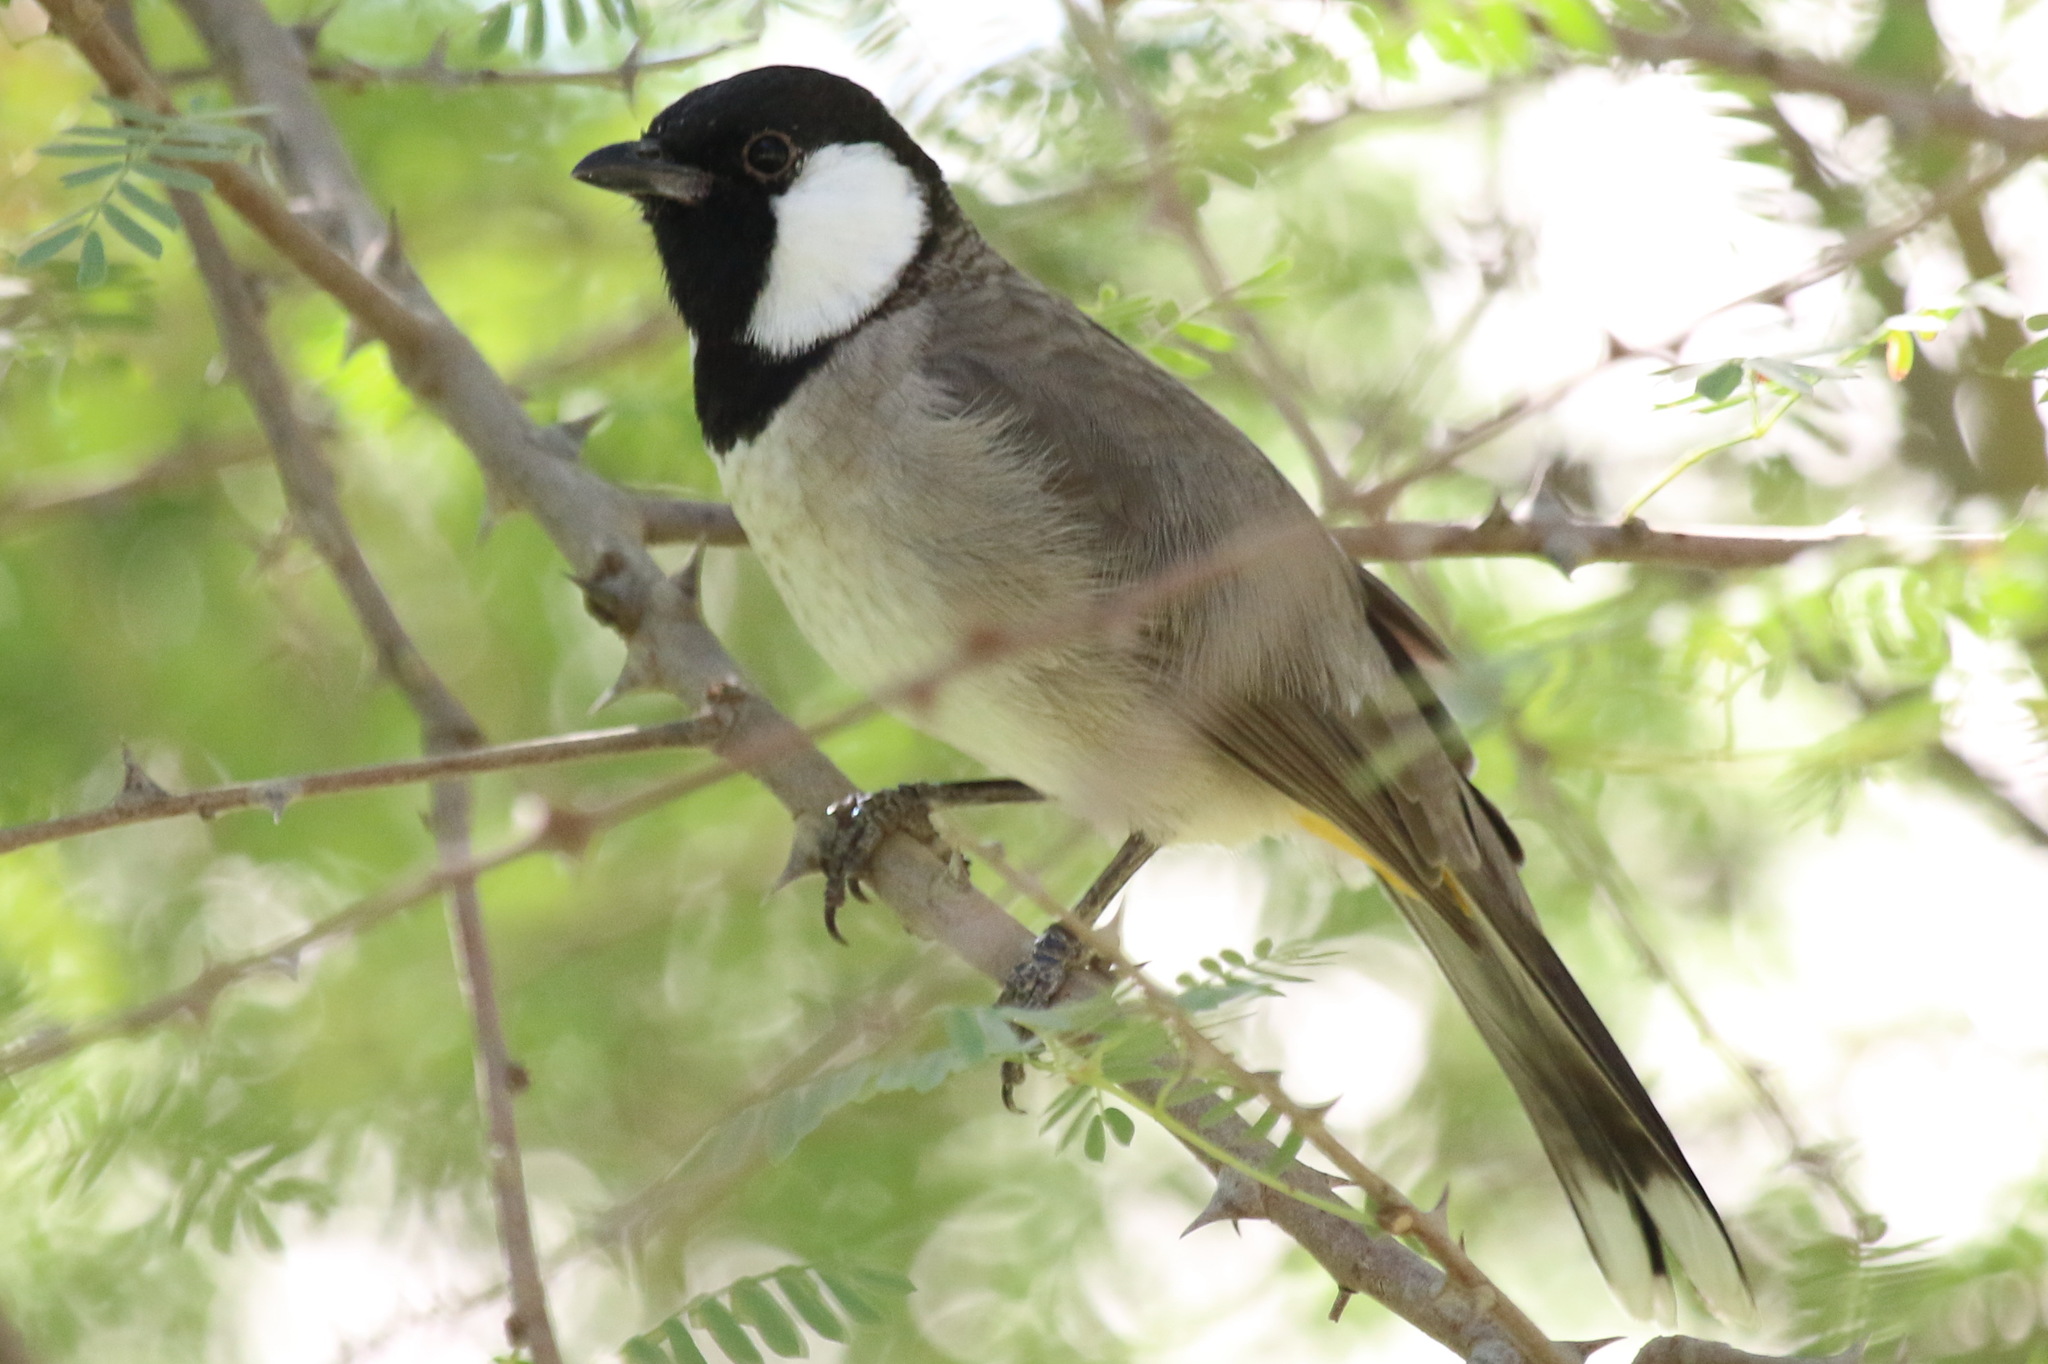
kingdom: Animalia
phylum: Chordata
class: Aves
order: Passeriformes
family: Pycnonotidae
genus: Pycnonotus
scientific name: Pycnonotus leucotis
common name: White-eared bulbul
